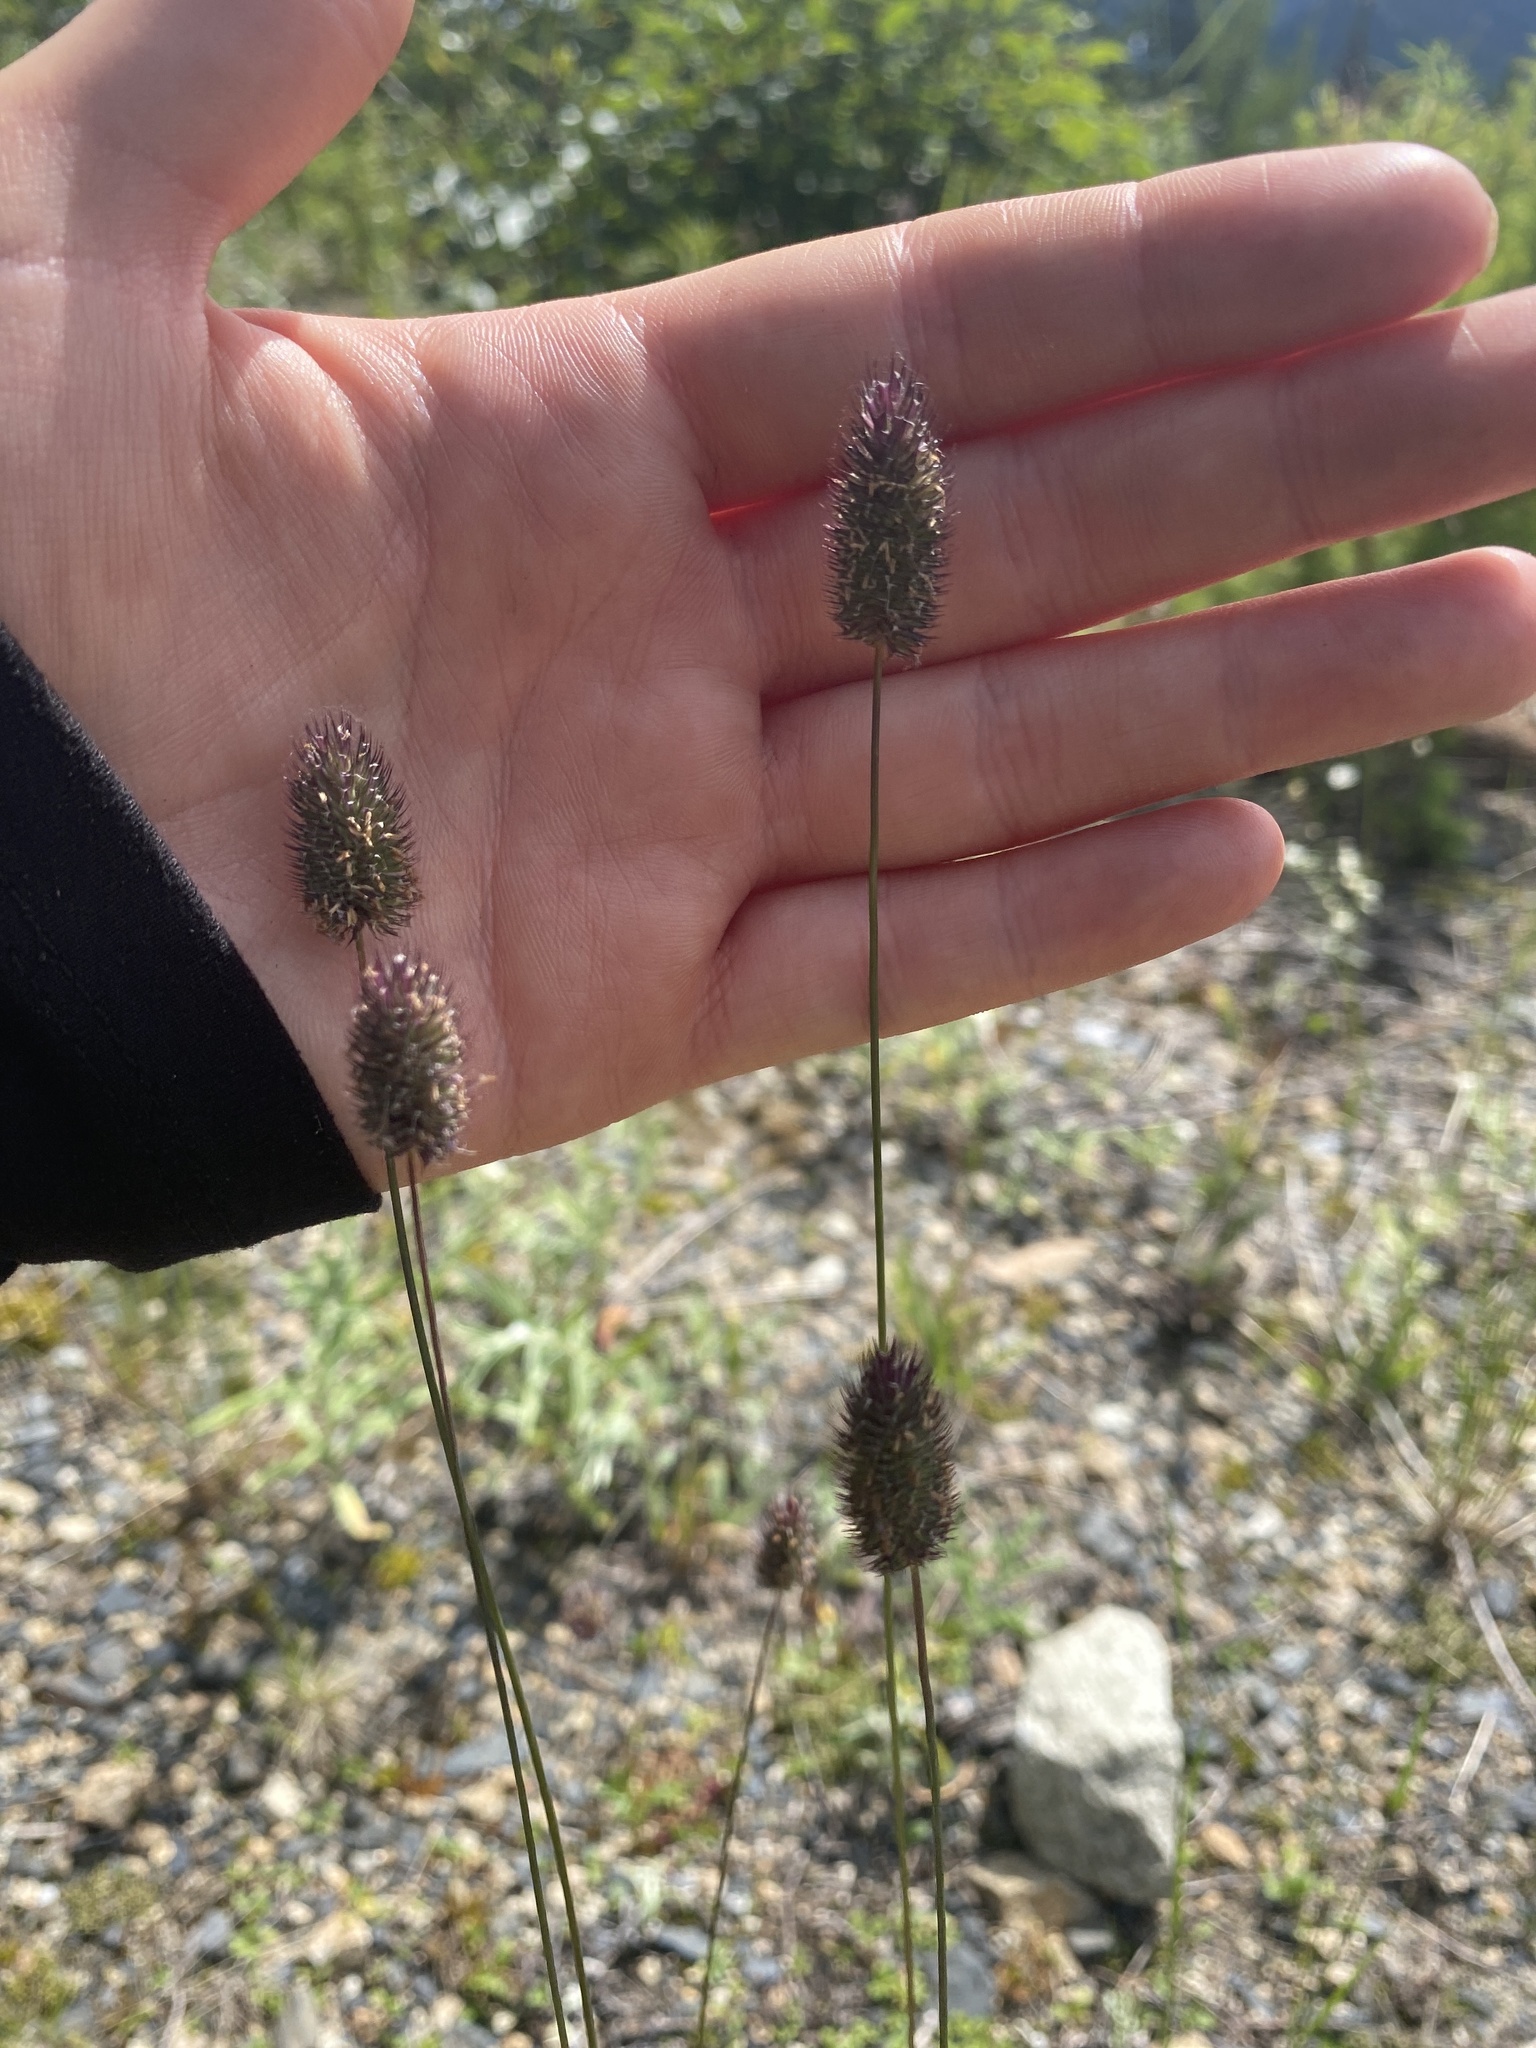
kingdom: Plantae
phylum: Tracheophyta
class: Liliopsida
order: Poales
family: Poaceae
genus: Phleum
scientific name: Phleum alpinum
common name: Alpine cat's-tail
